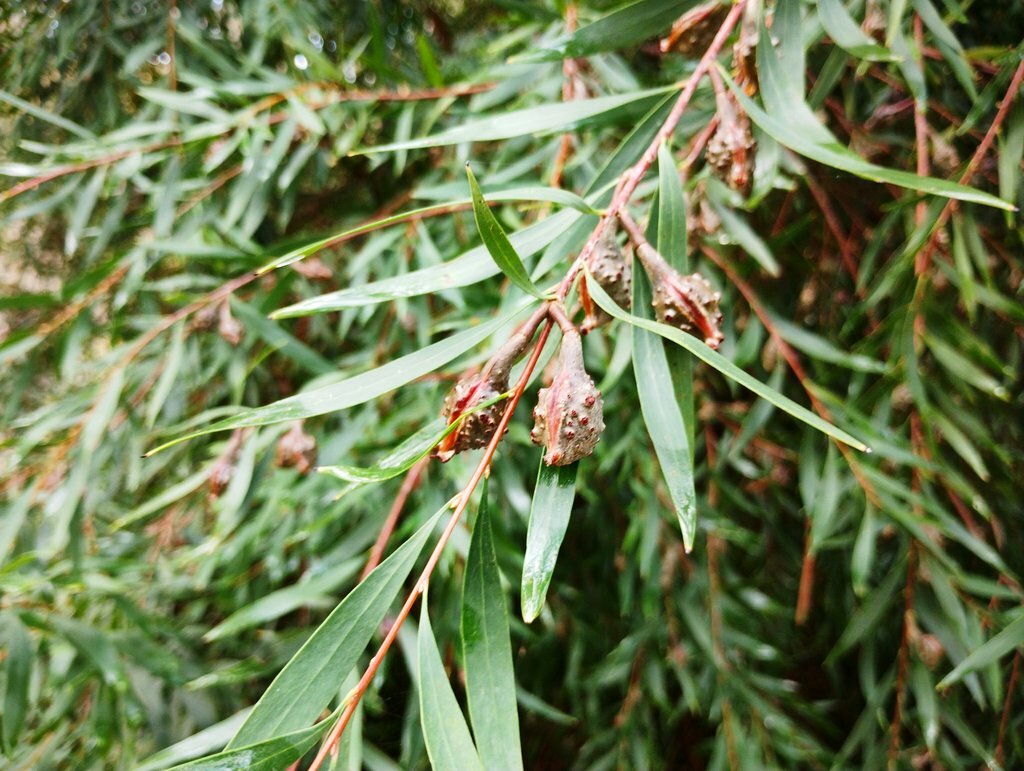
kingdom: Plantae
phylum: Tracheophyta
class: Magnoliopsida
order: Proteales
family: Proteaceae
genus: Hakea
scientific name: Hakea salicifolia
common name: Willow hakea
